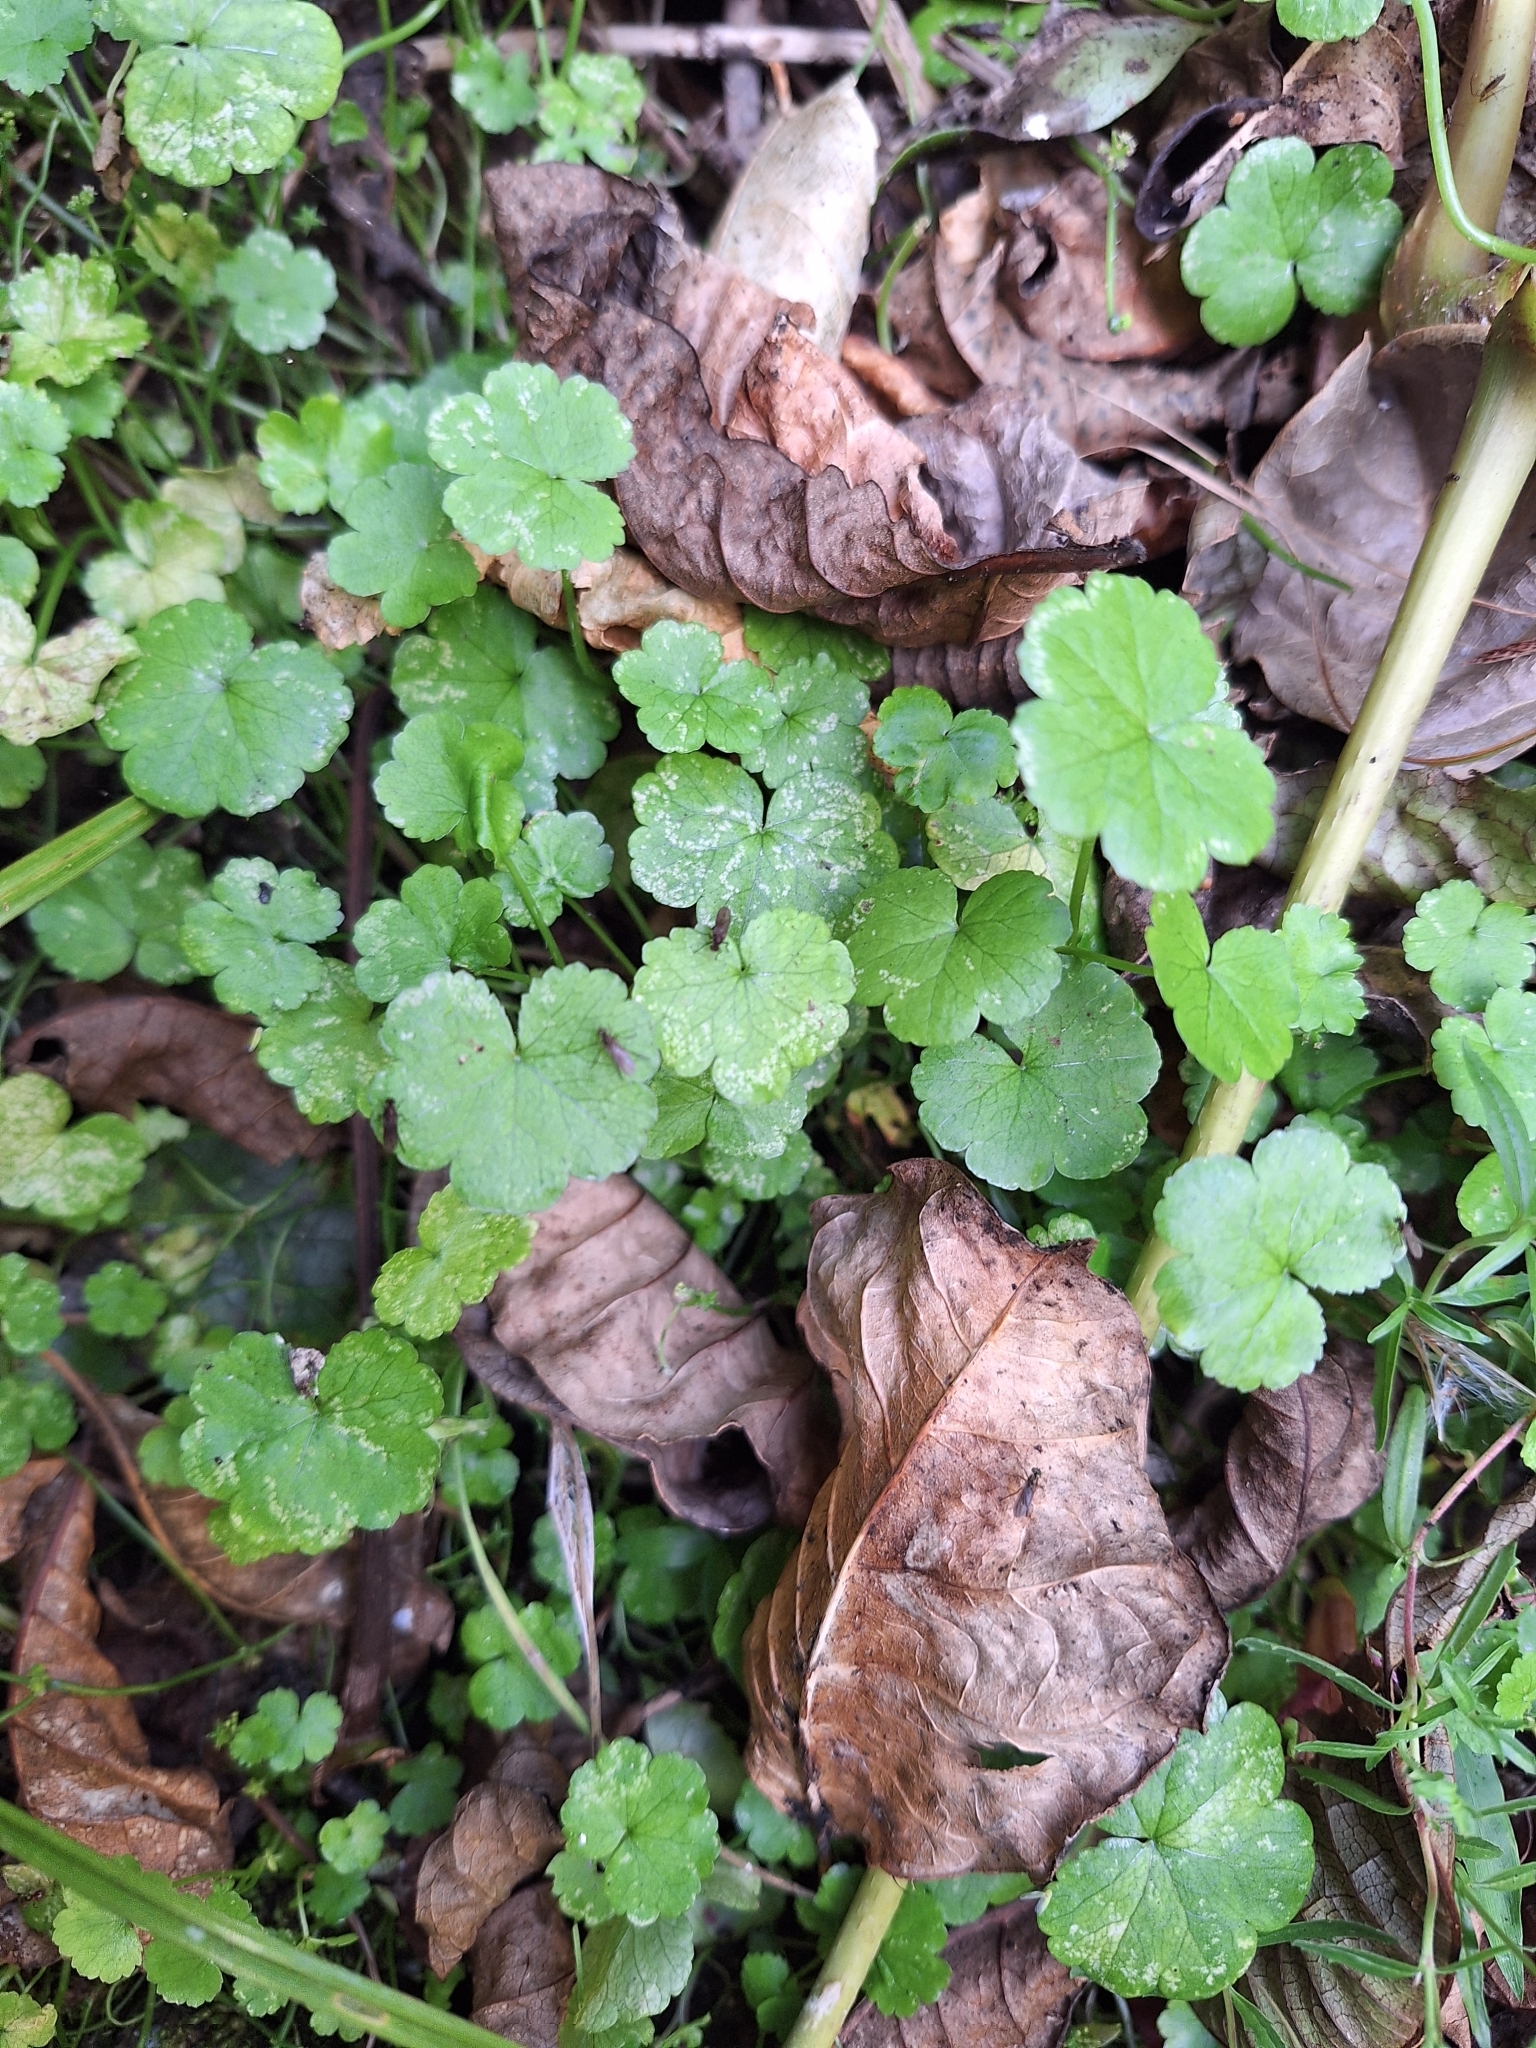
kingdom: Plantae
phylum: Tracheophyta
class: Magnoliopsida
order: Apiales
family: Araliaceae
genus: Hydrocotyle
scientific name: Hydrocotyle heteromeria
